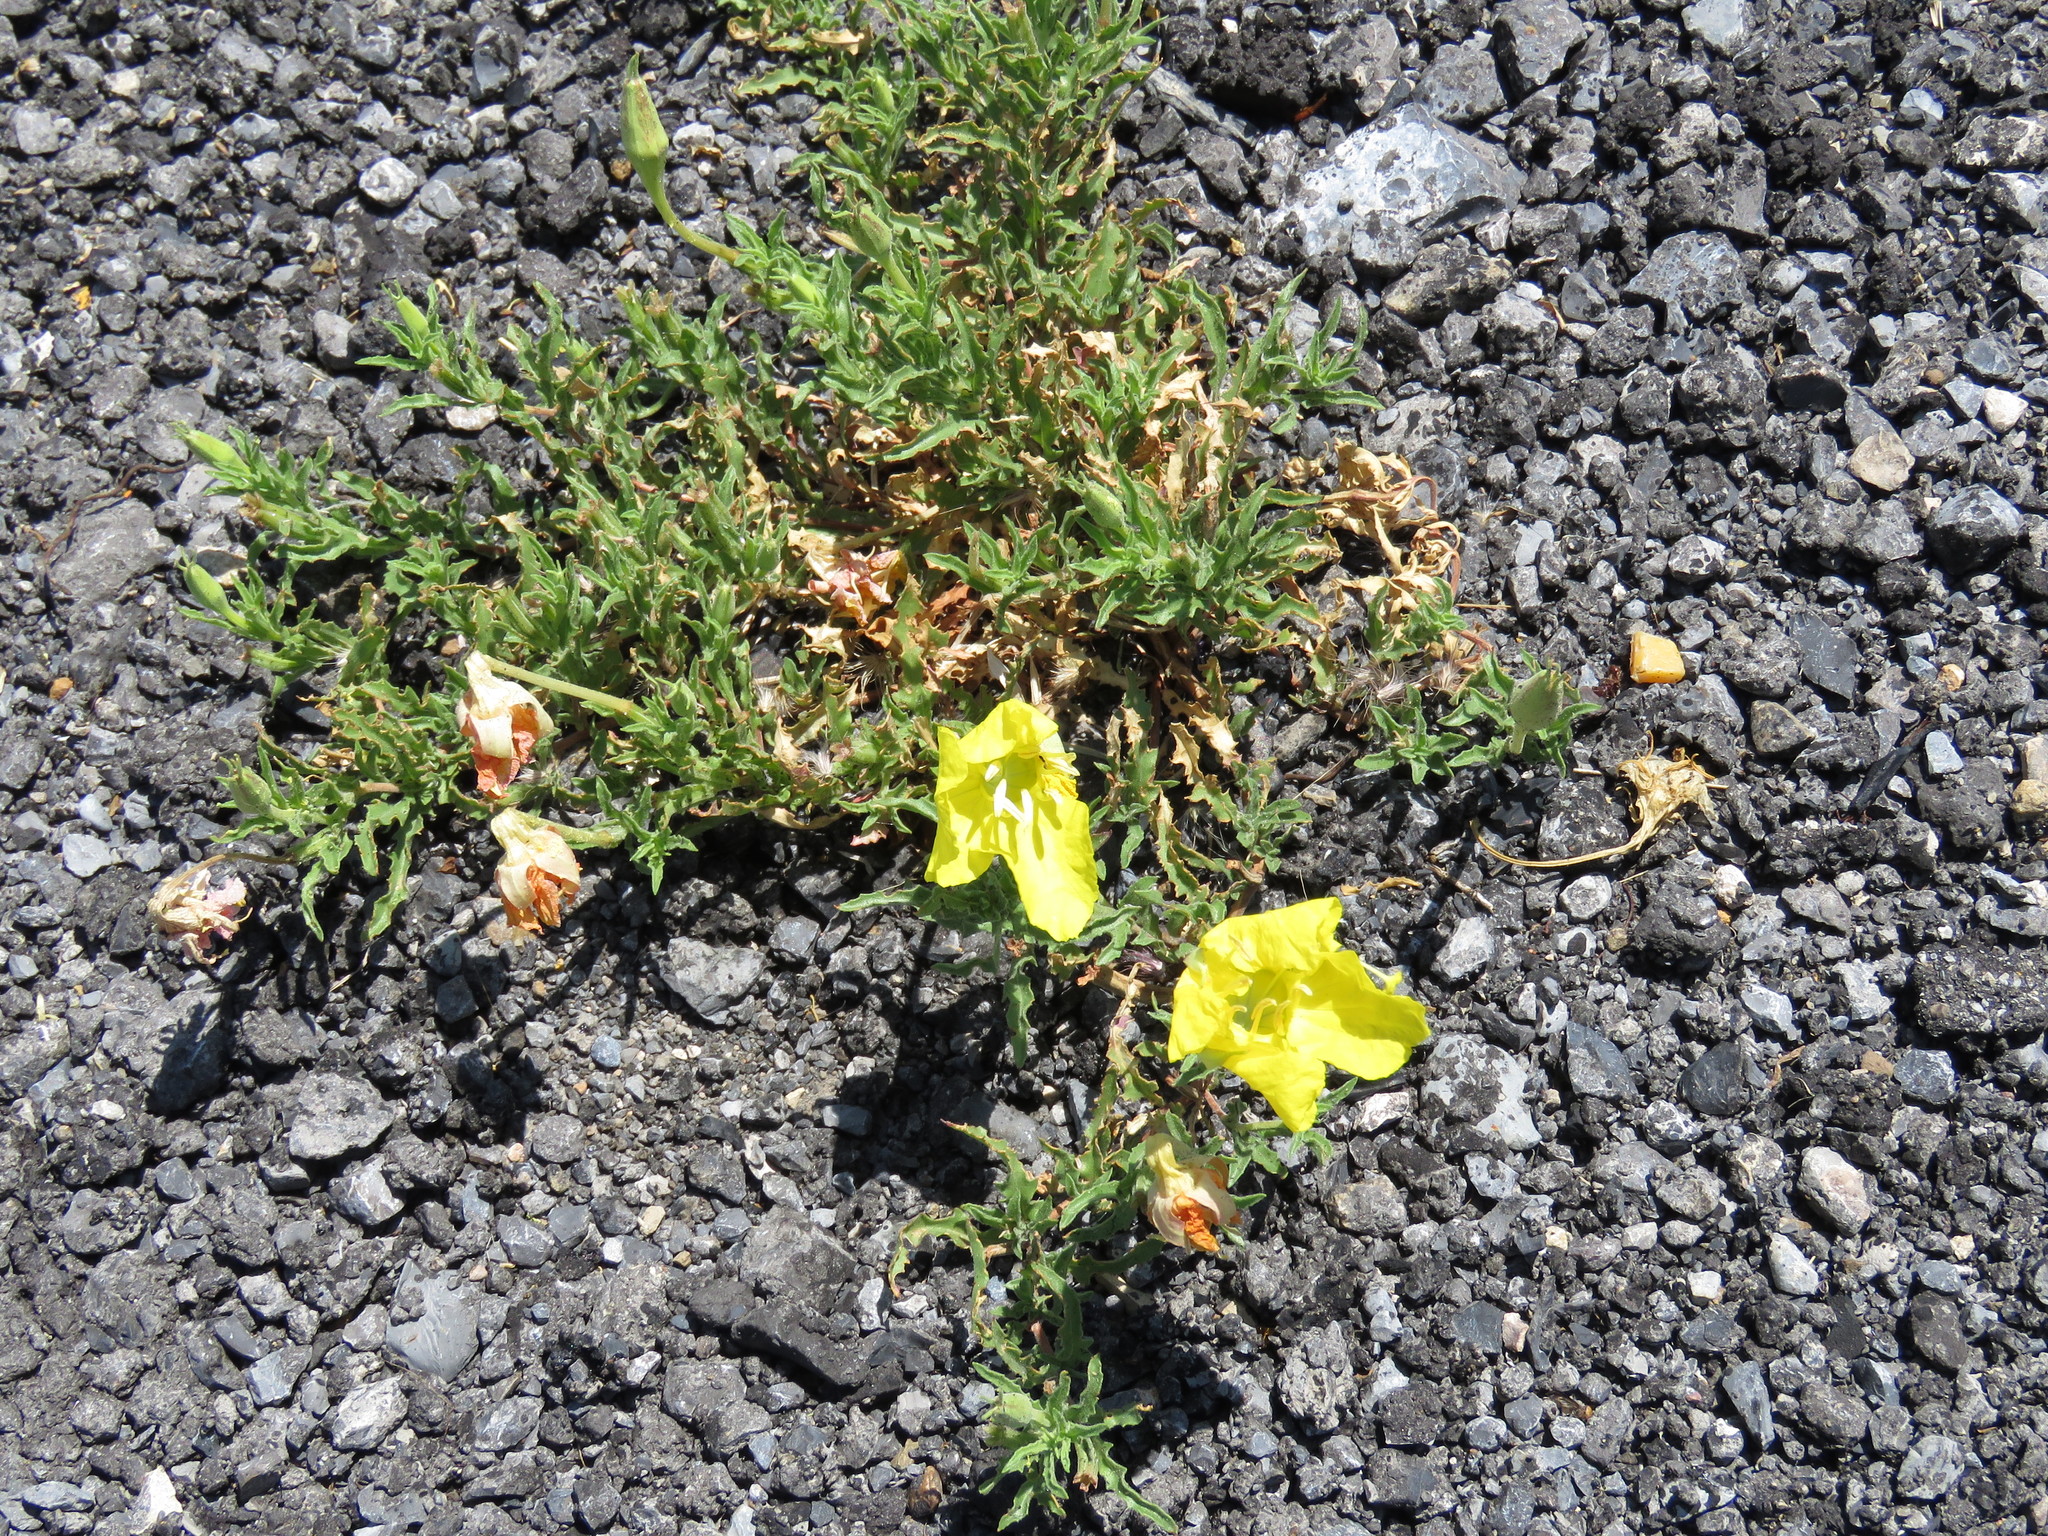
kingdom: Plantae
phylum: Tracheophyta
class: Magnoliopsida
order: Myrtales
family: Onagraceae
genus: Oenothera
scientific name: Oenothera serrulata
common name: Half-shrub calylophus
